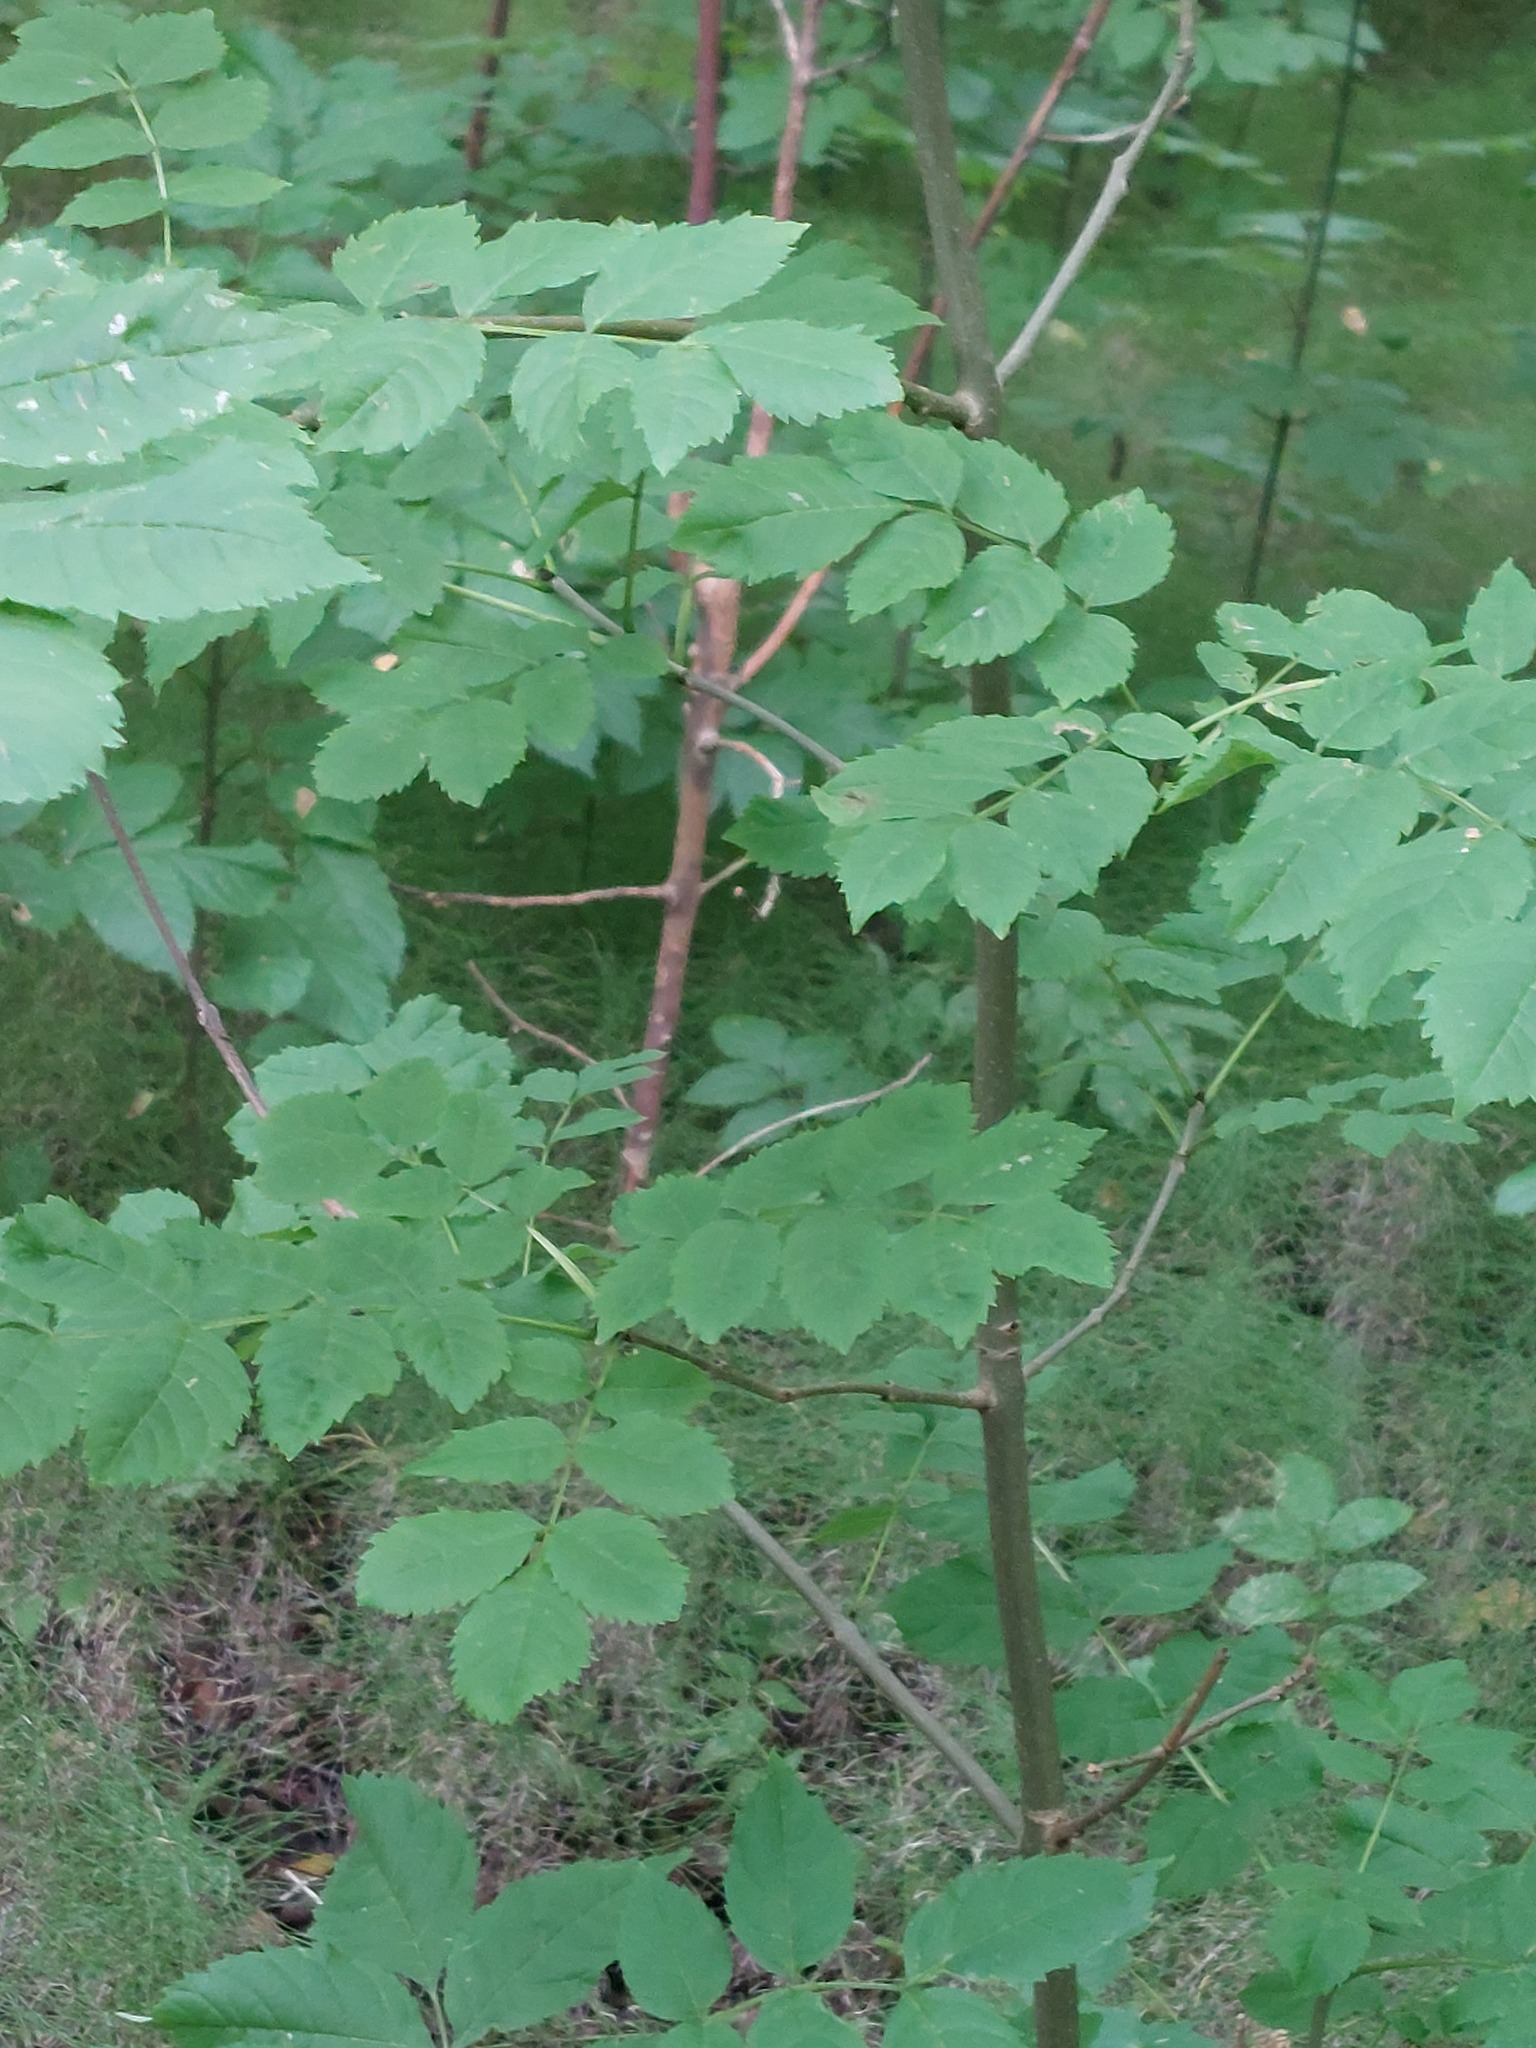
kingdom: Plantae
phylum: Tracheophyta
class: Magnoliopsida
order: Lamiales
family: Oleaceae
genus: Fraxinus
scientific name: Fraxinus excelsior
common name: European ash
